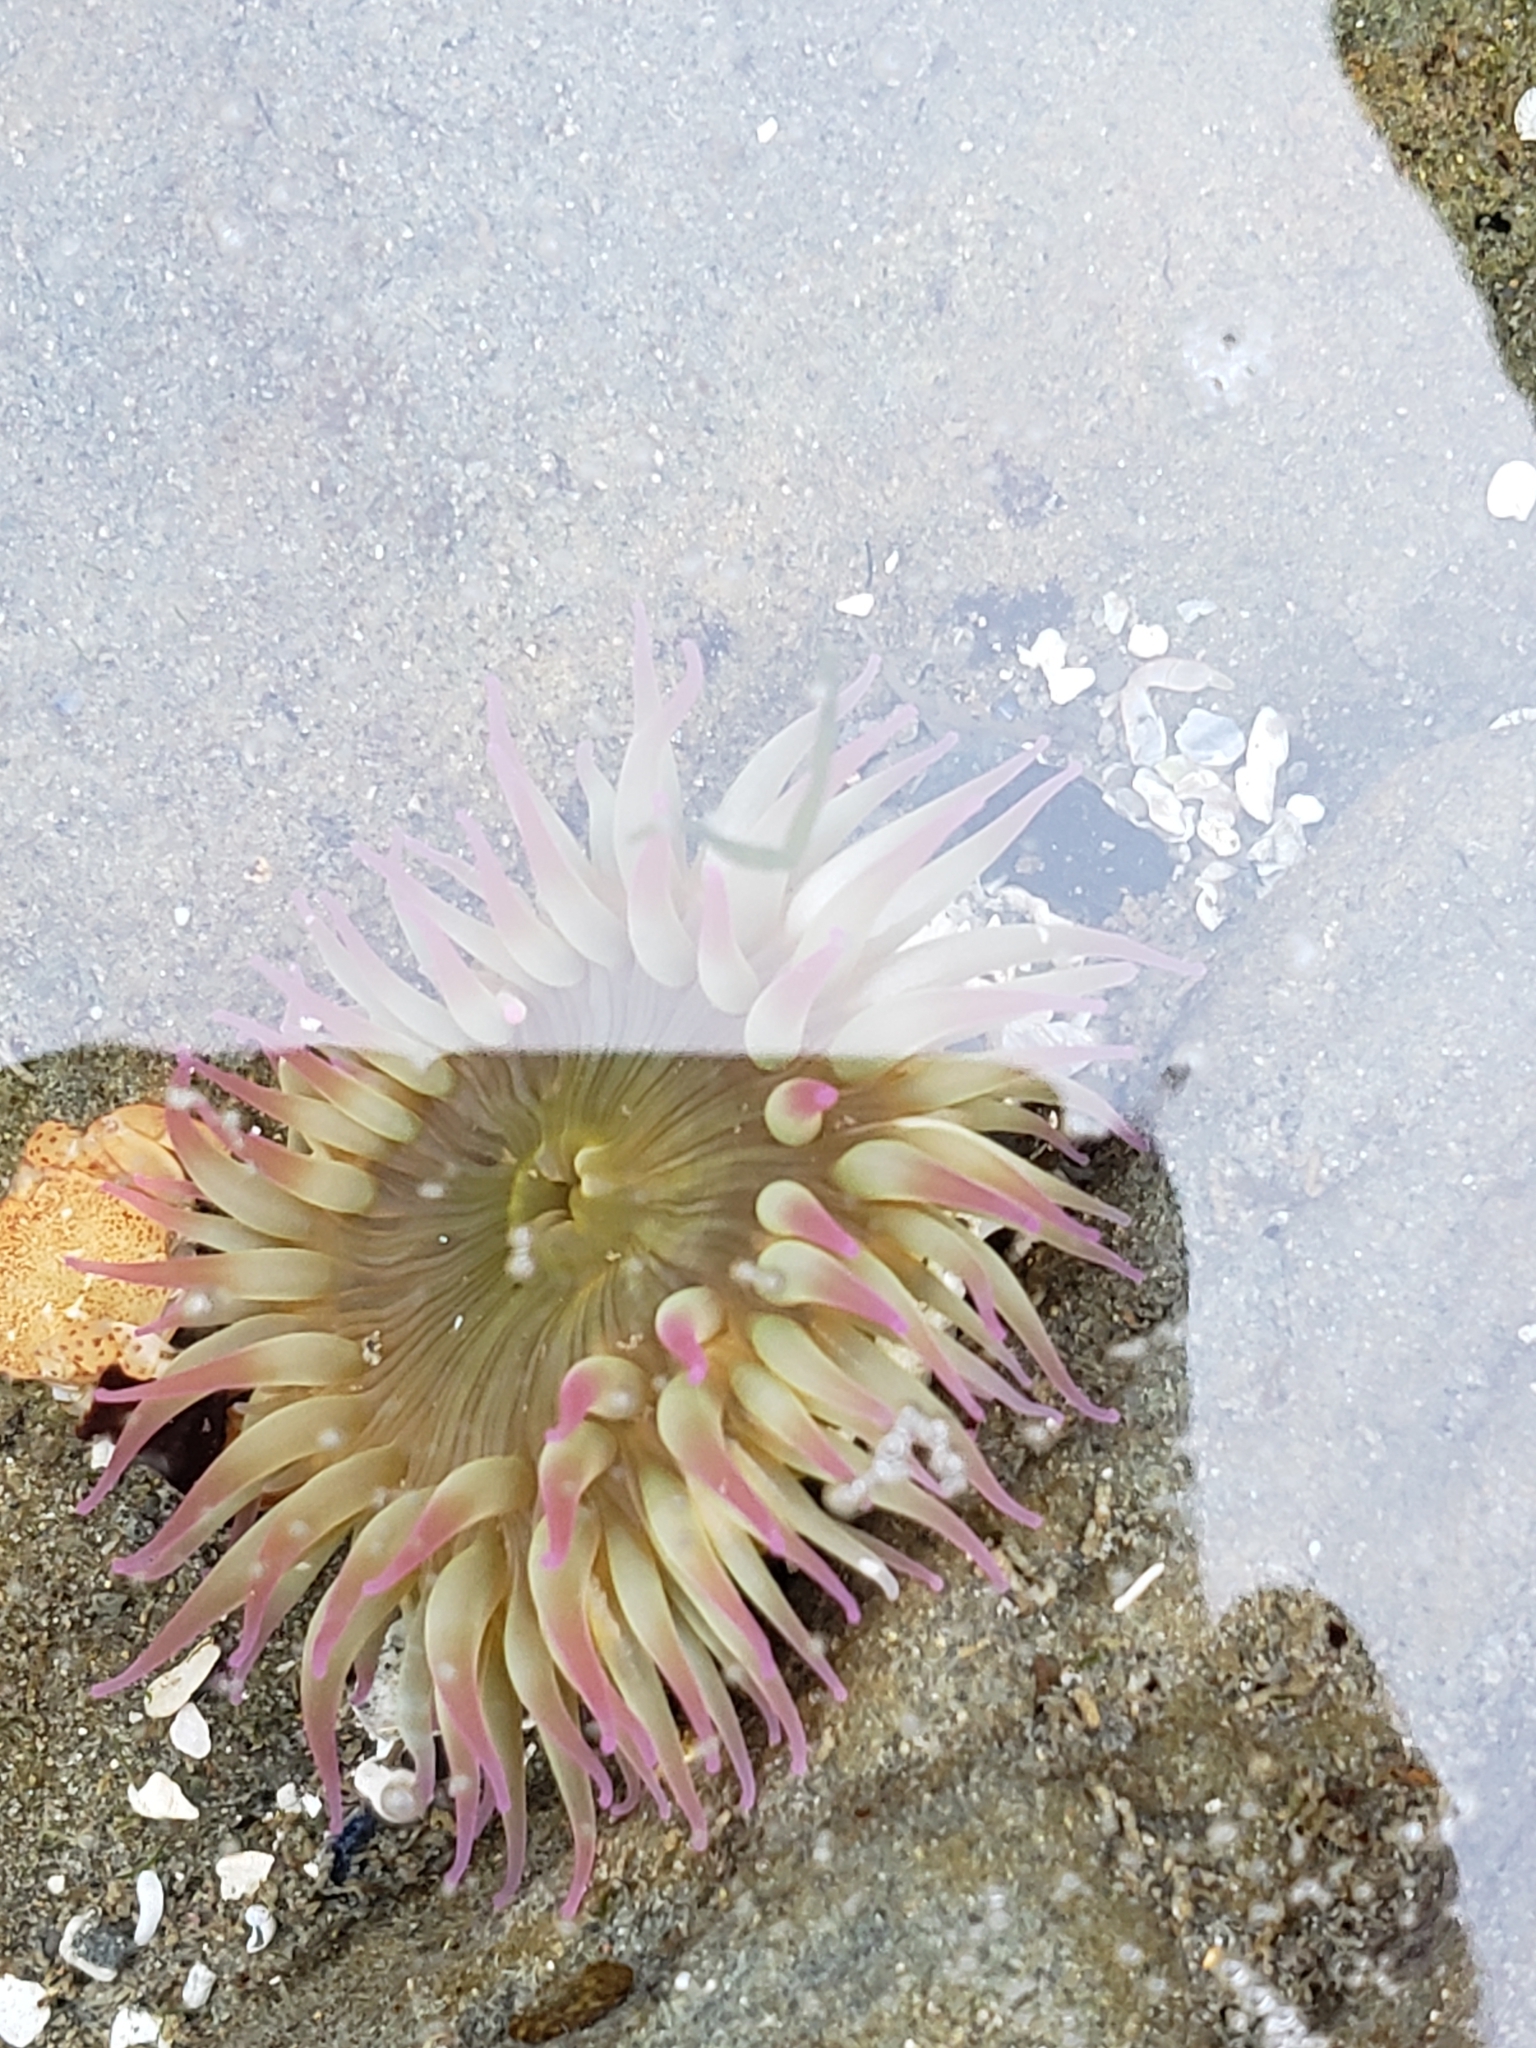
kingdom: Animalia
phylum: Cnidaria
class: Anthozoa
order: Actiniaria
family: Actiniidae
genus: Anthopleura
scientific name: Anthopleura elegantissima
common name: Clonal anemone
